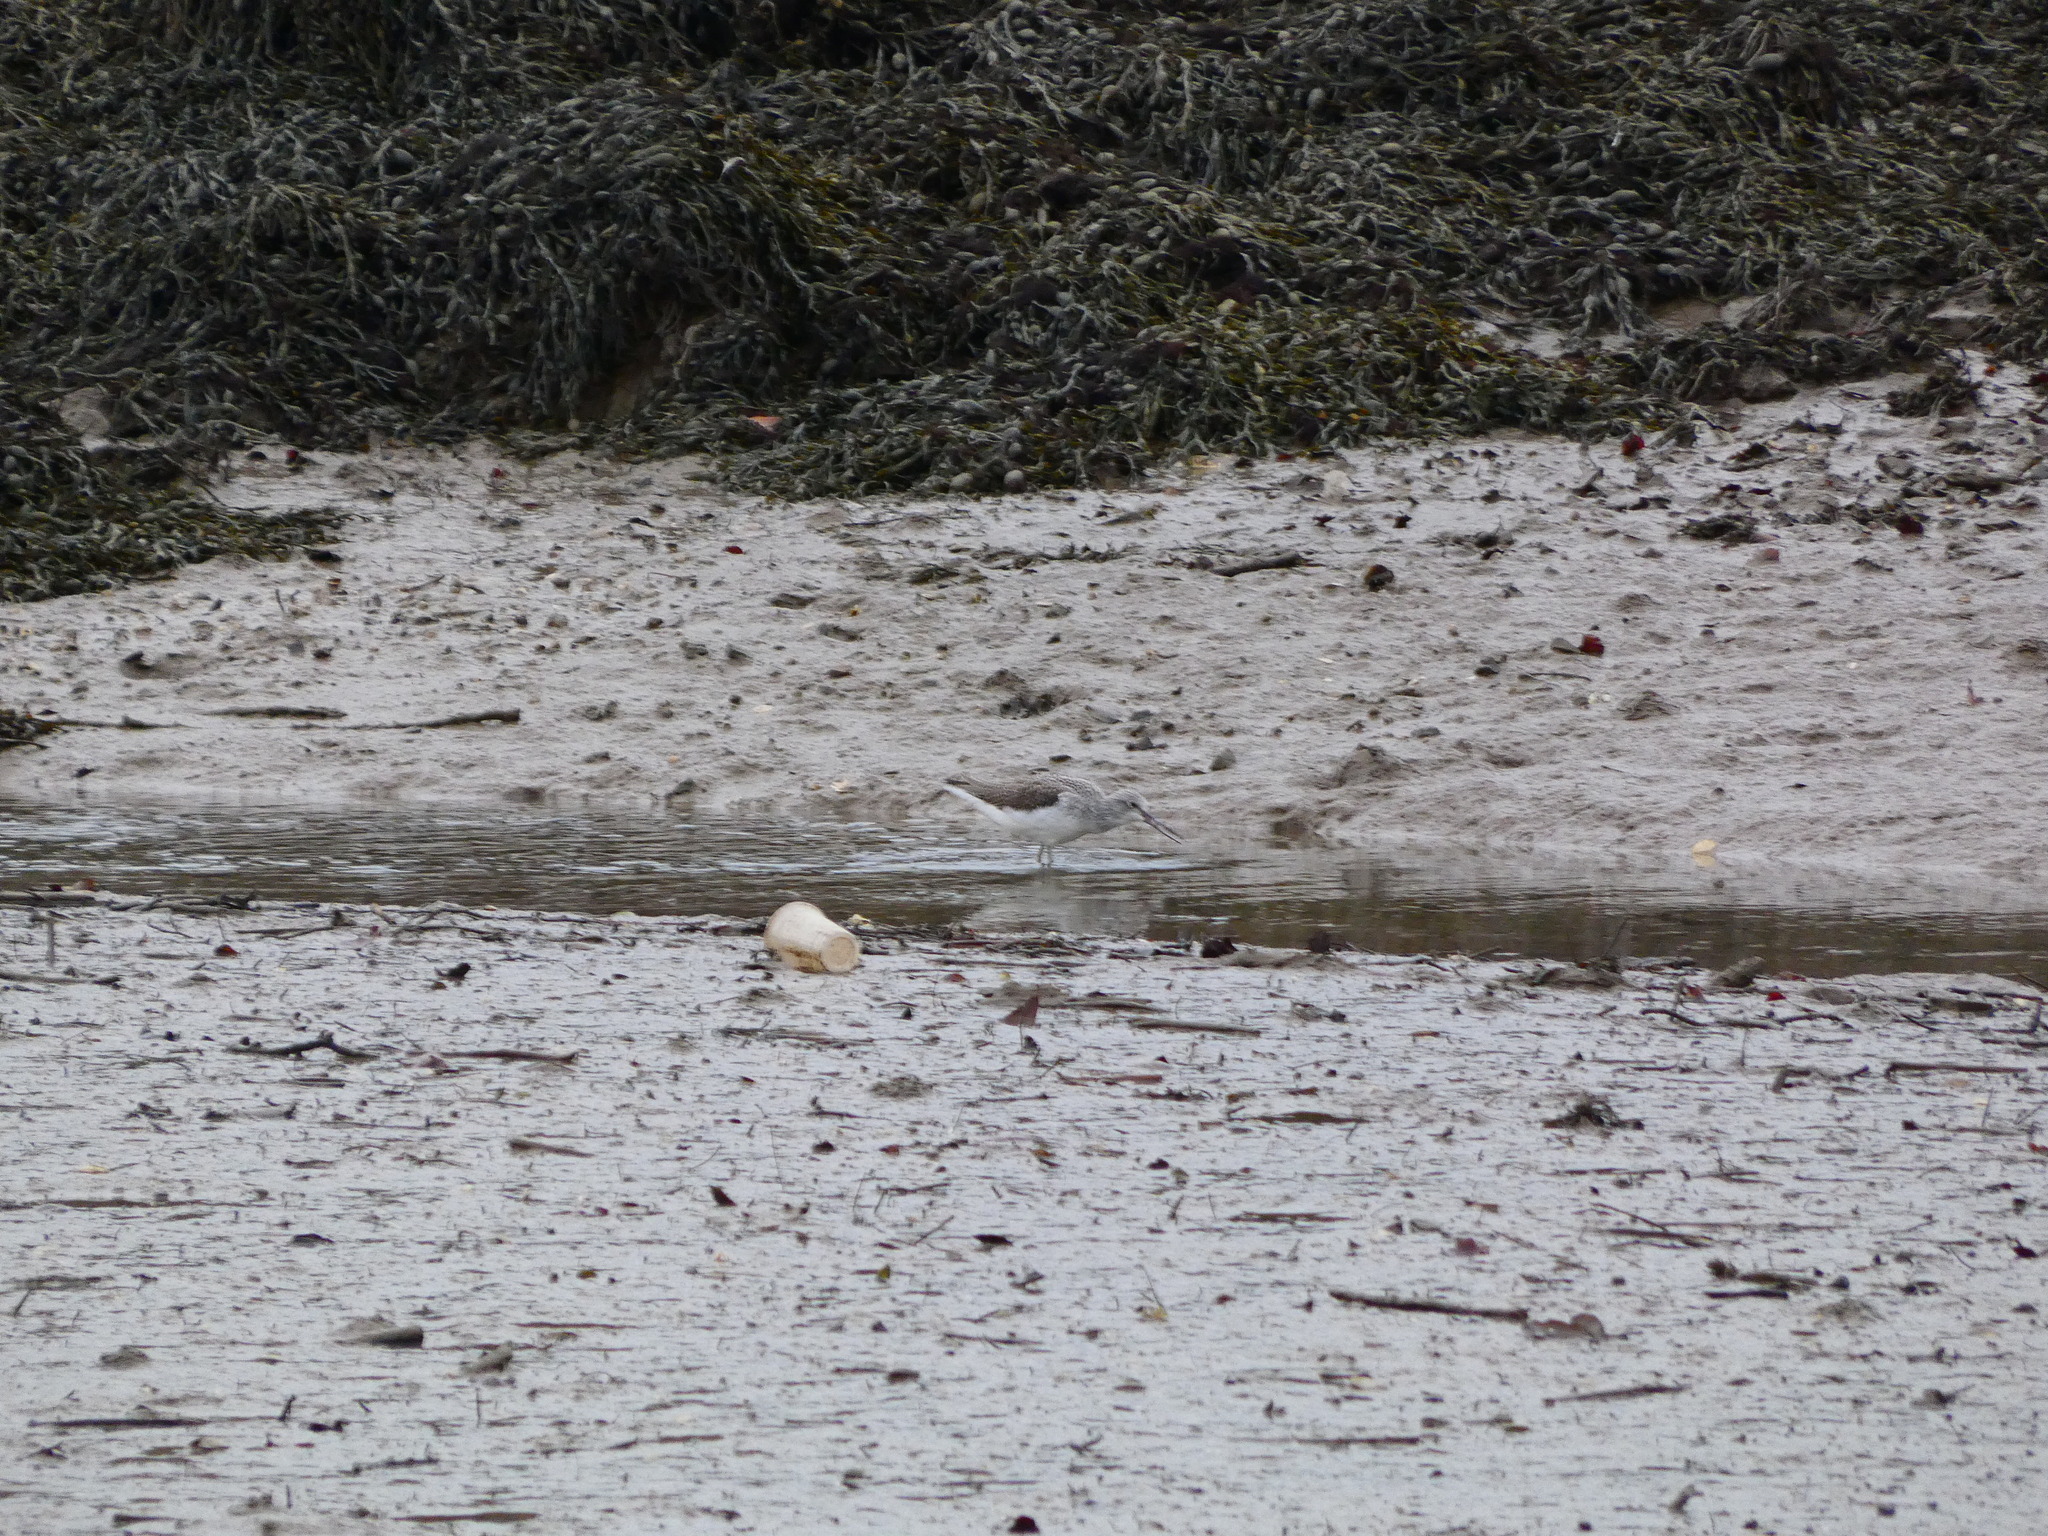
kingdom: Animalia
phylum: Chordata
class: Aves
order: Charadriiformes
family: Scolopacidae
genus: Tringa
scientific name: Tringa nebularia
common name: Common greenshank
